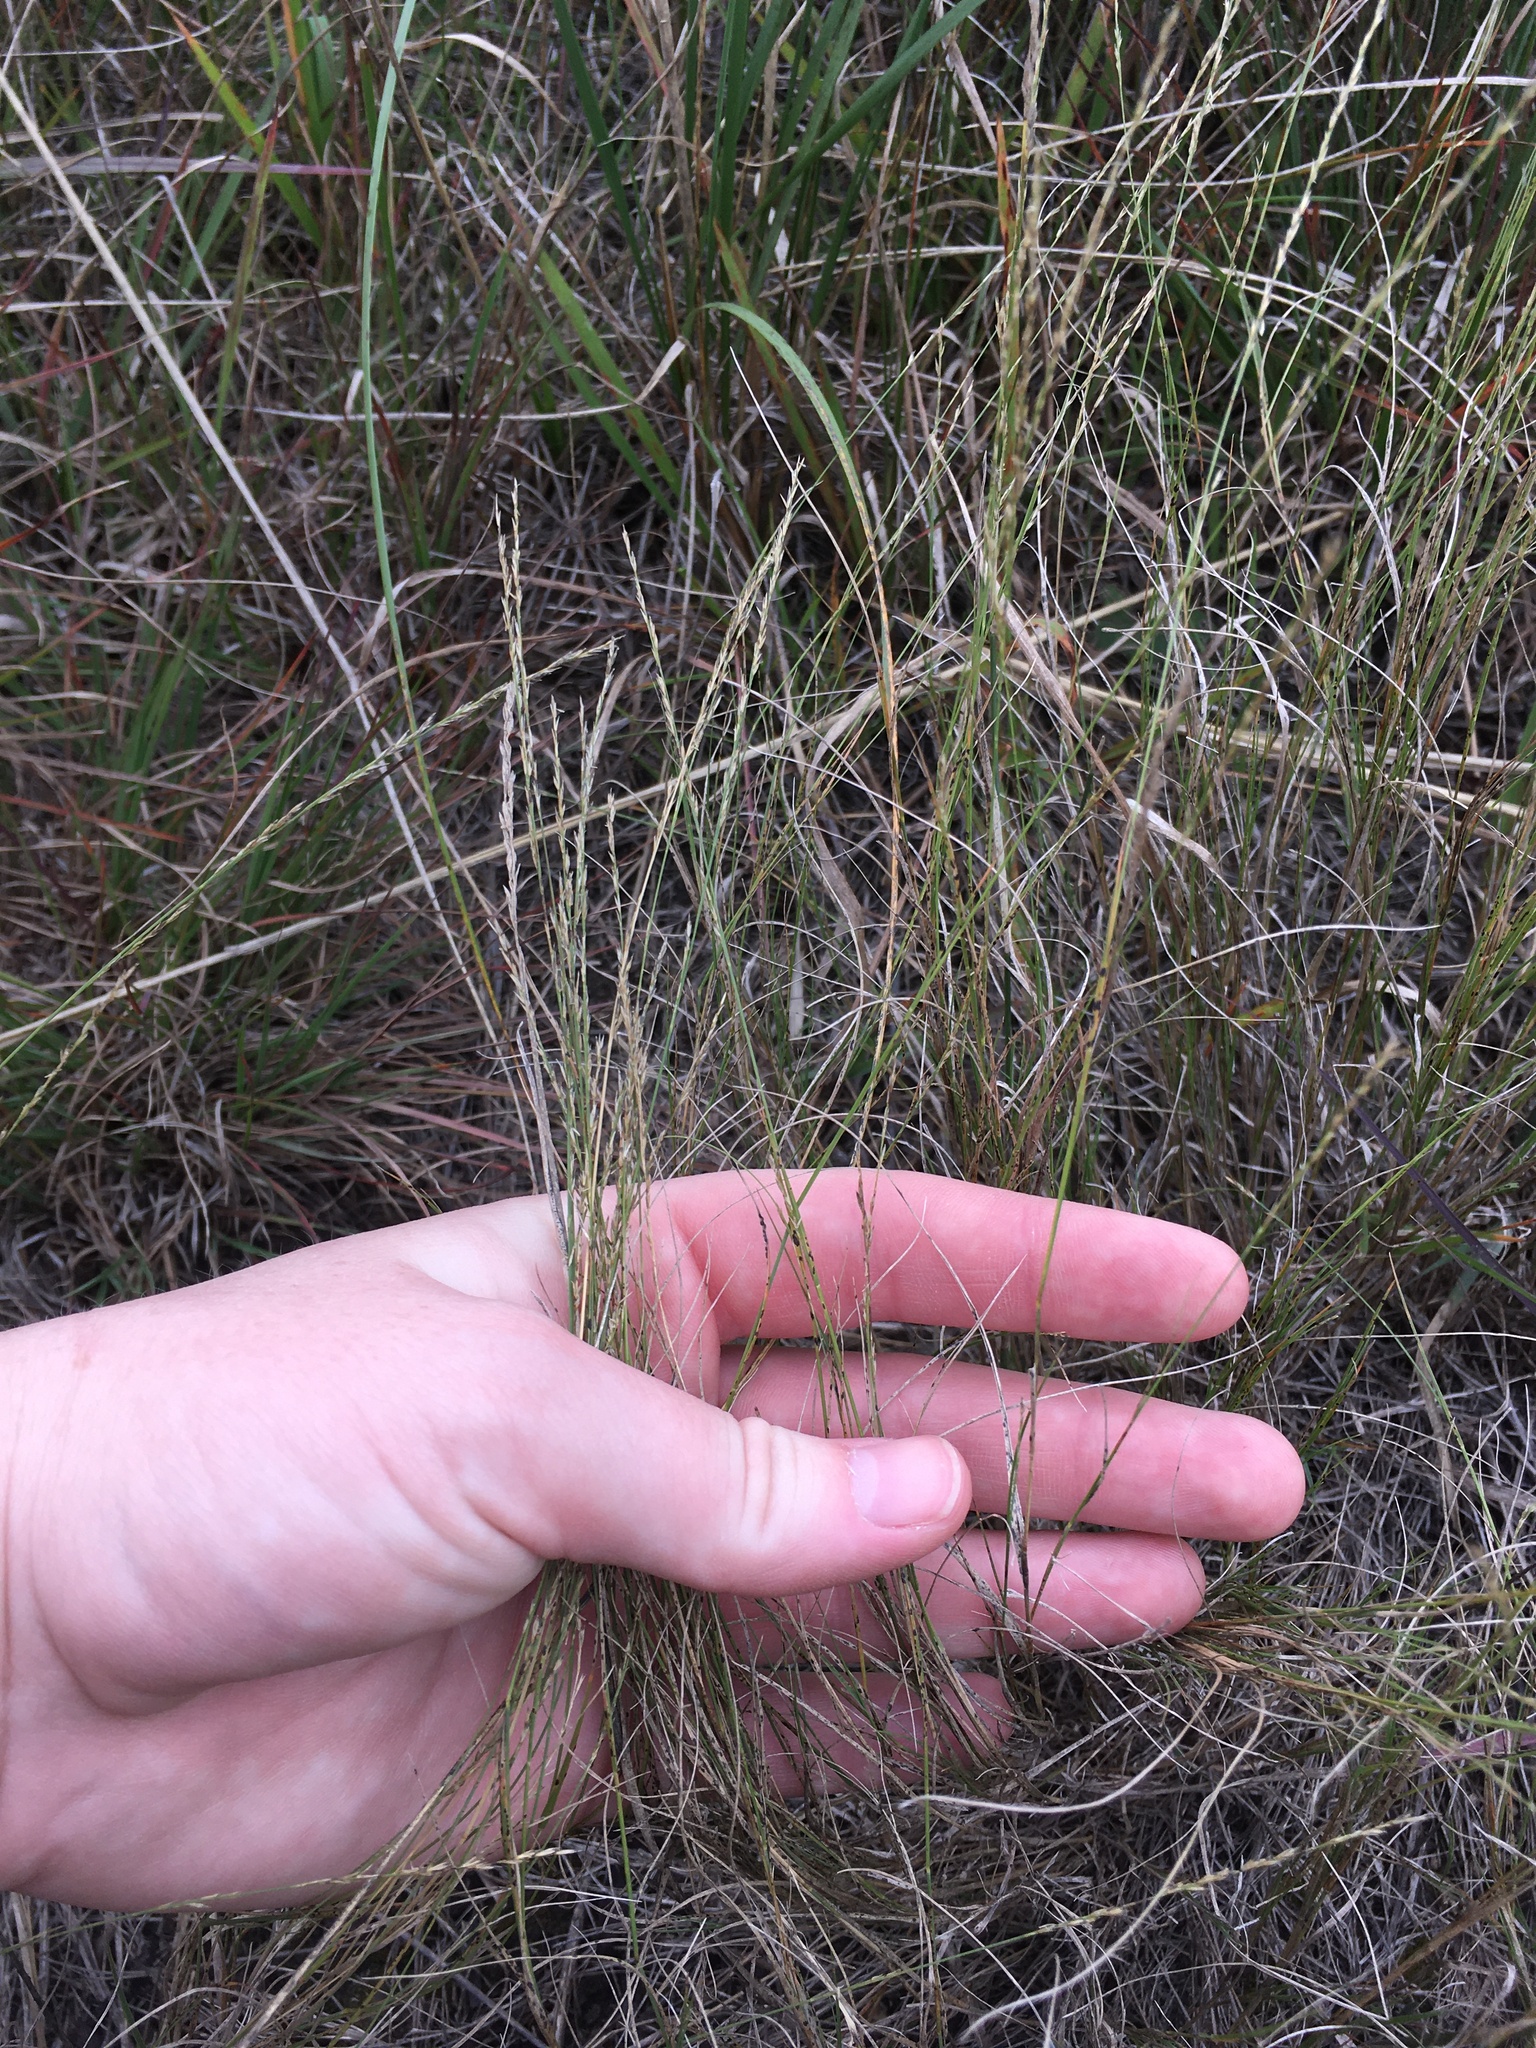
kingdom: Plantae
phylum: Tracheophyta
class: Liliopsida
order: Poales
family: Poaceae
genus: Muhlenbergia
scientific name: Muhlenbergia cuspidata
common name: Plains muhly
